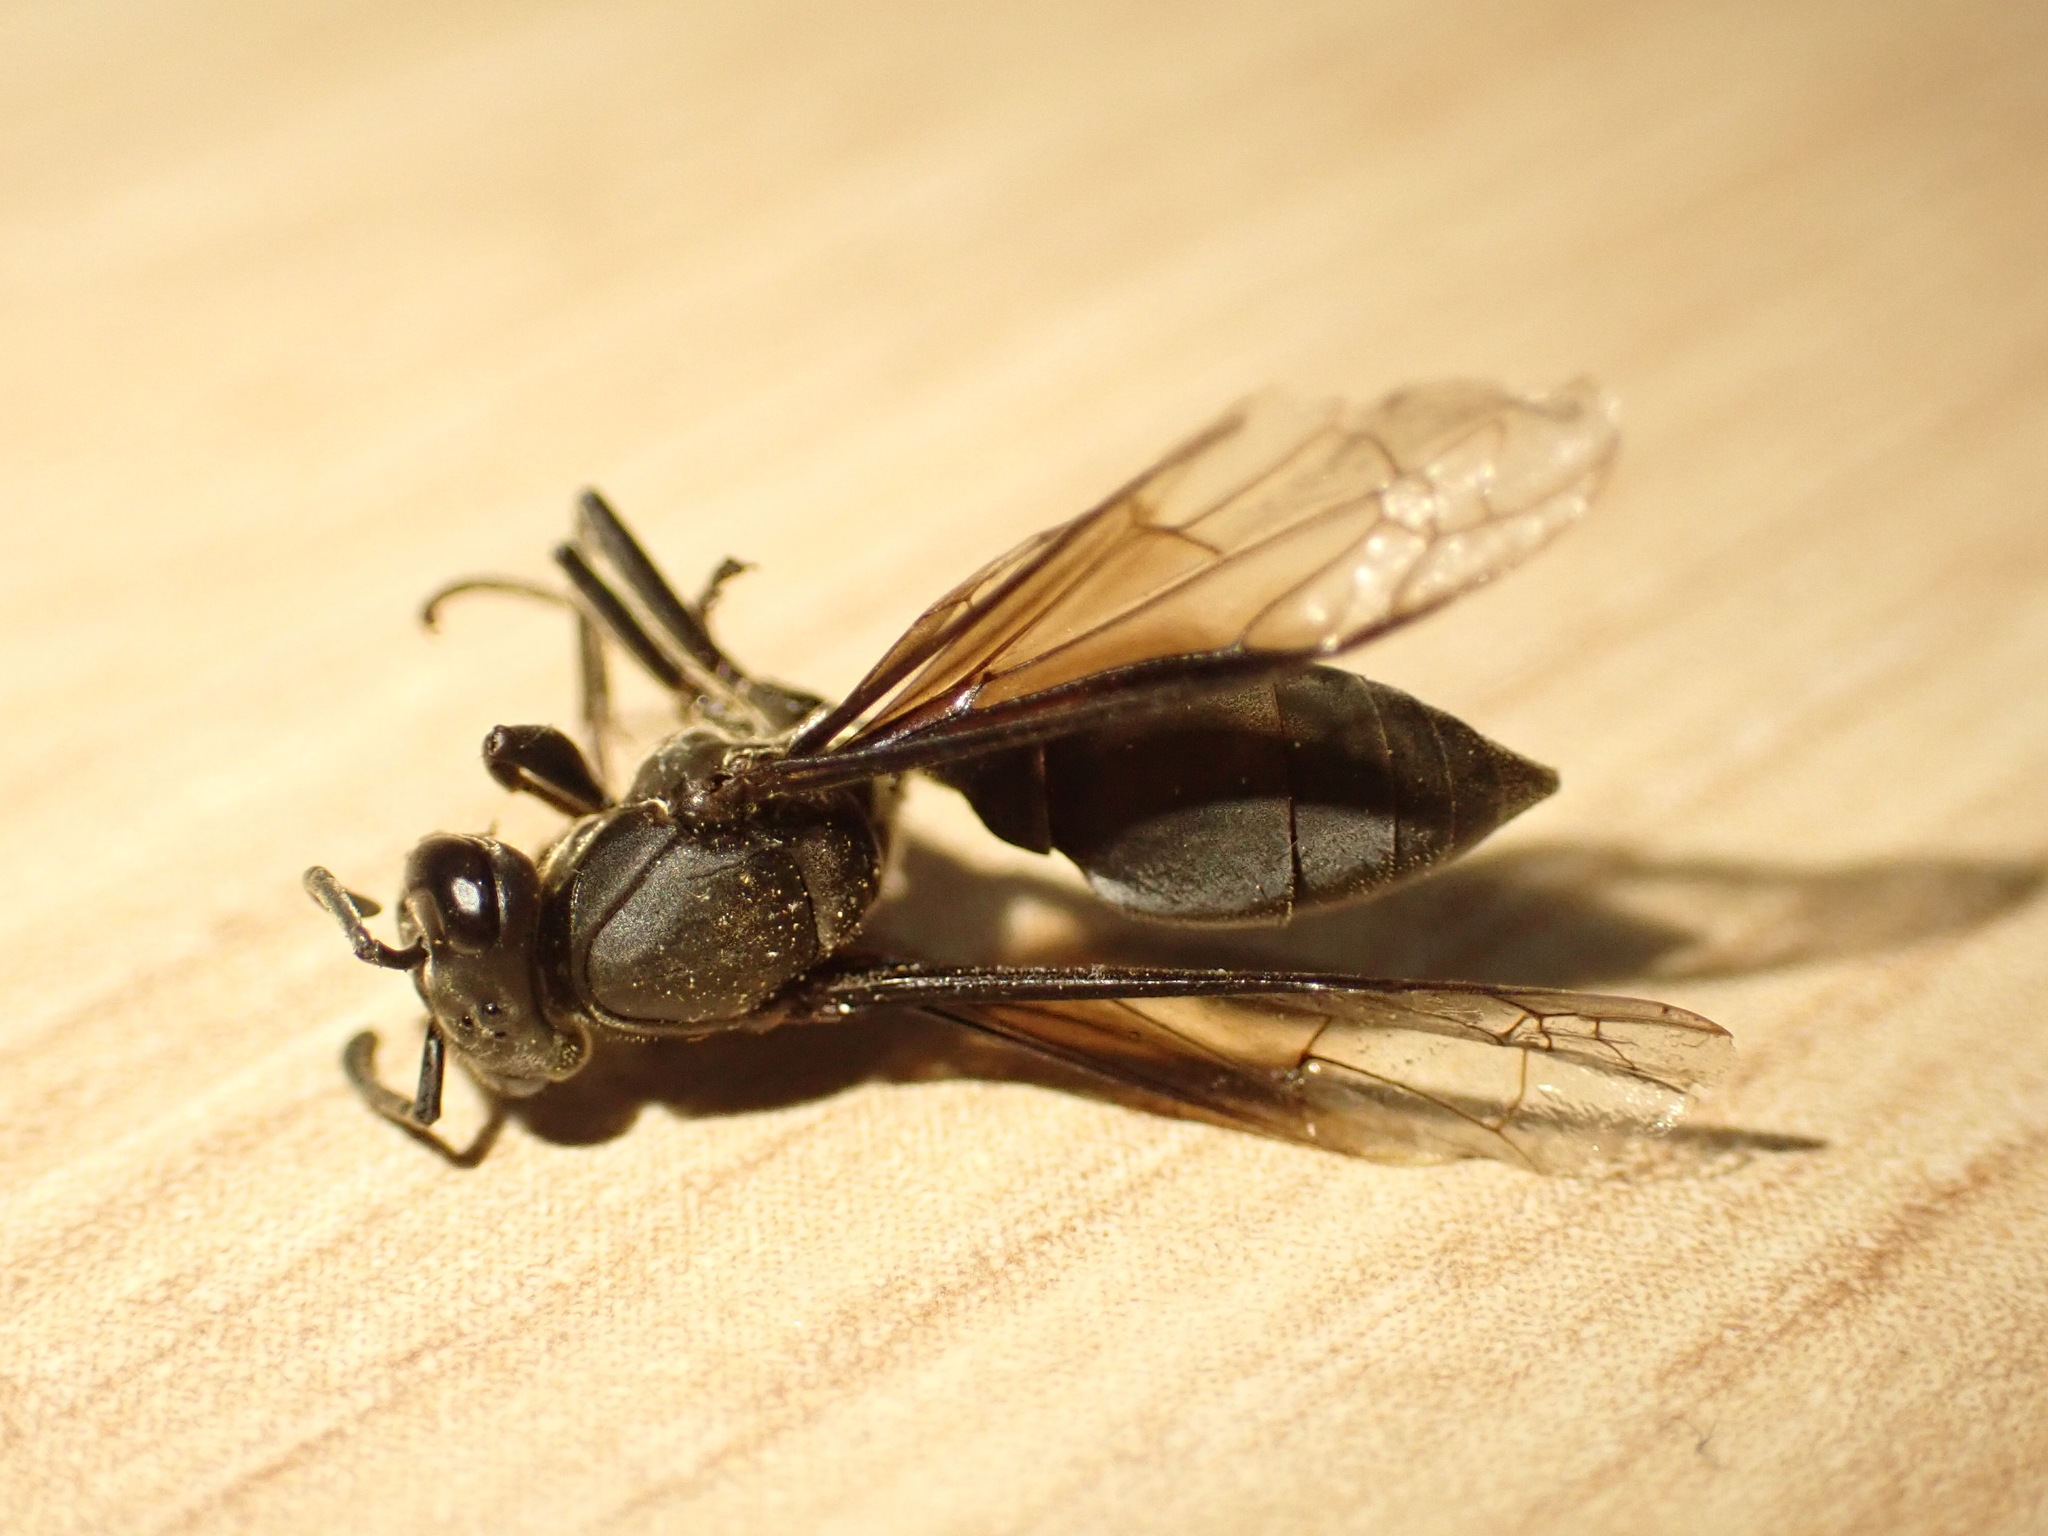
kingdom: Animalia
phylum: Arthropoda
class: Insecta
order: Hymenoptera
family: Eumenidae
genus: Polybia
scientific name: Polybia ignobilis
